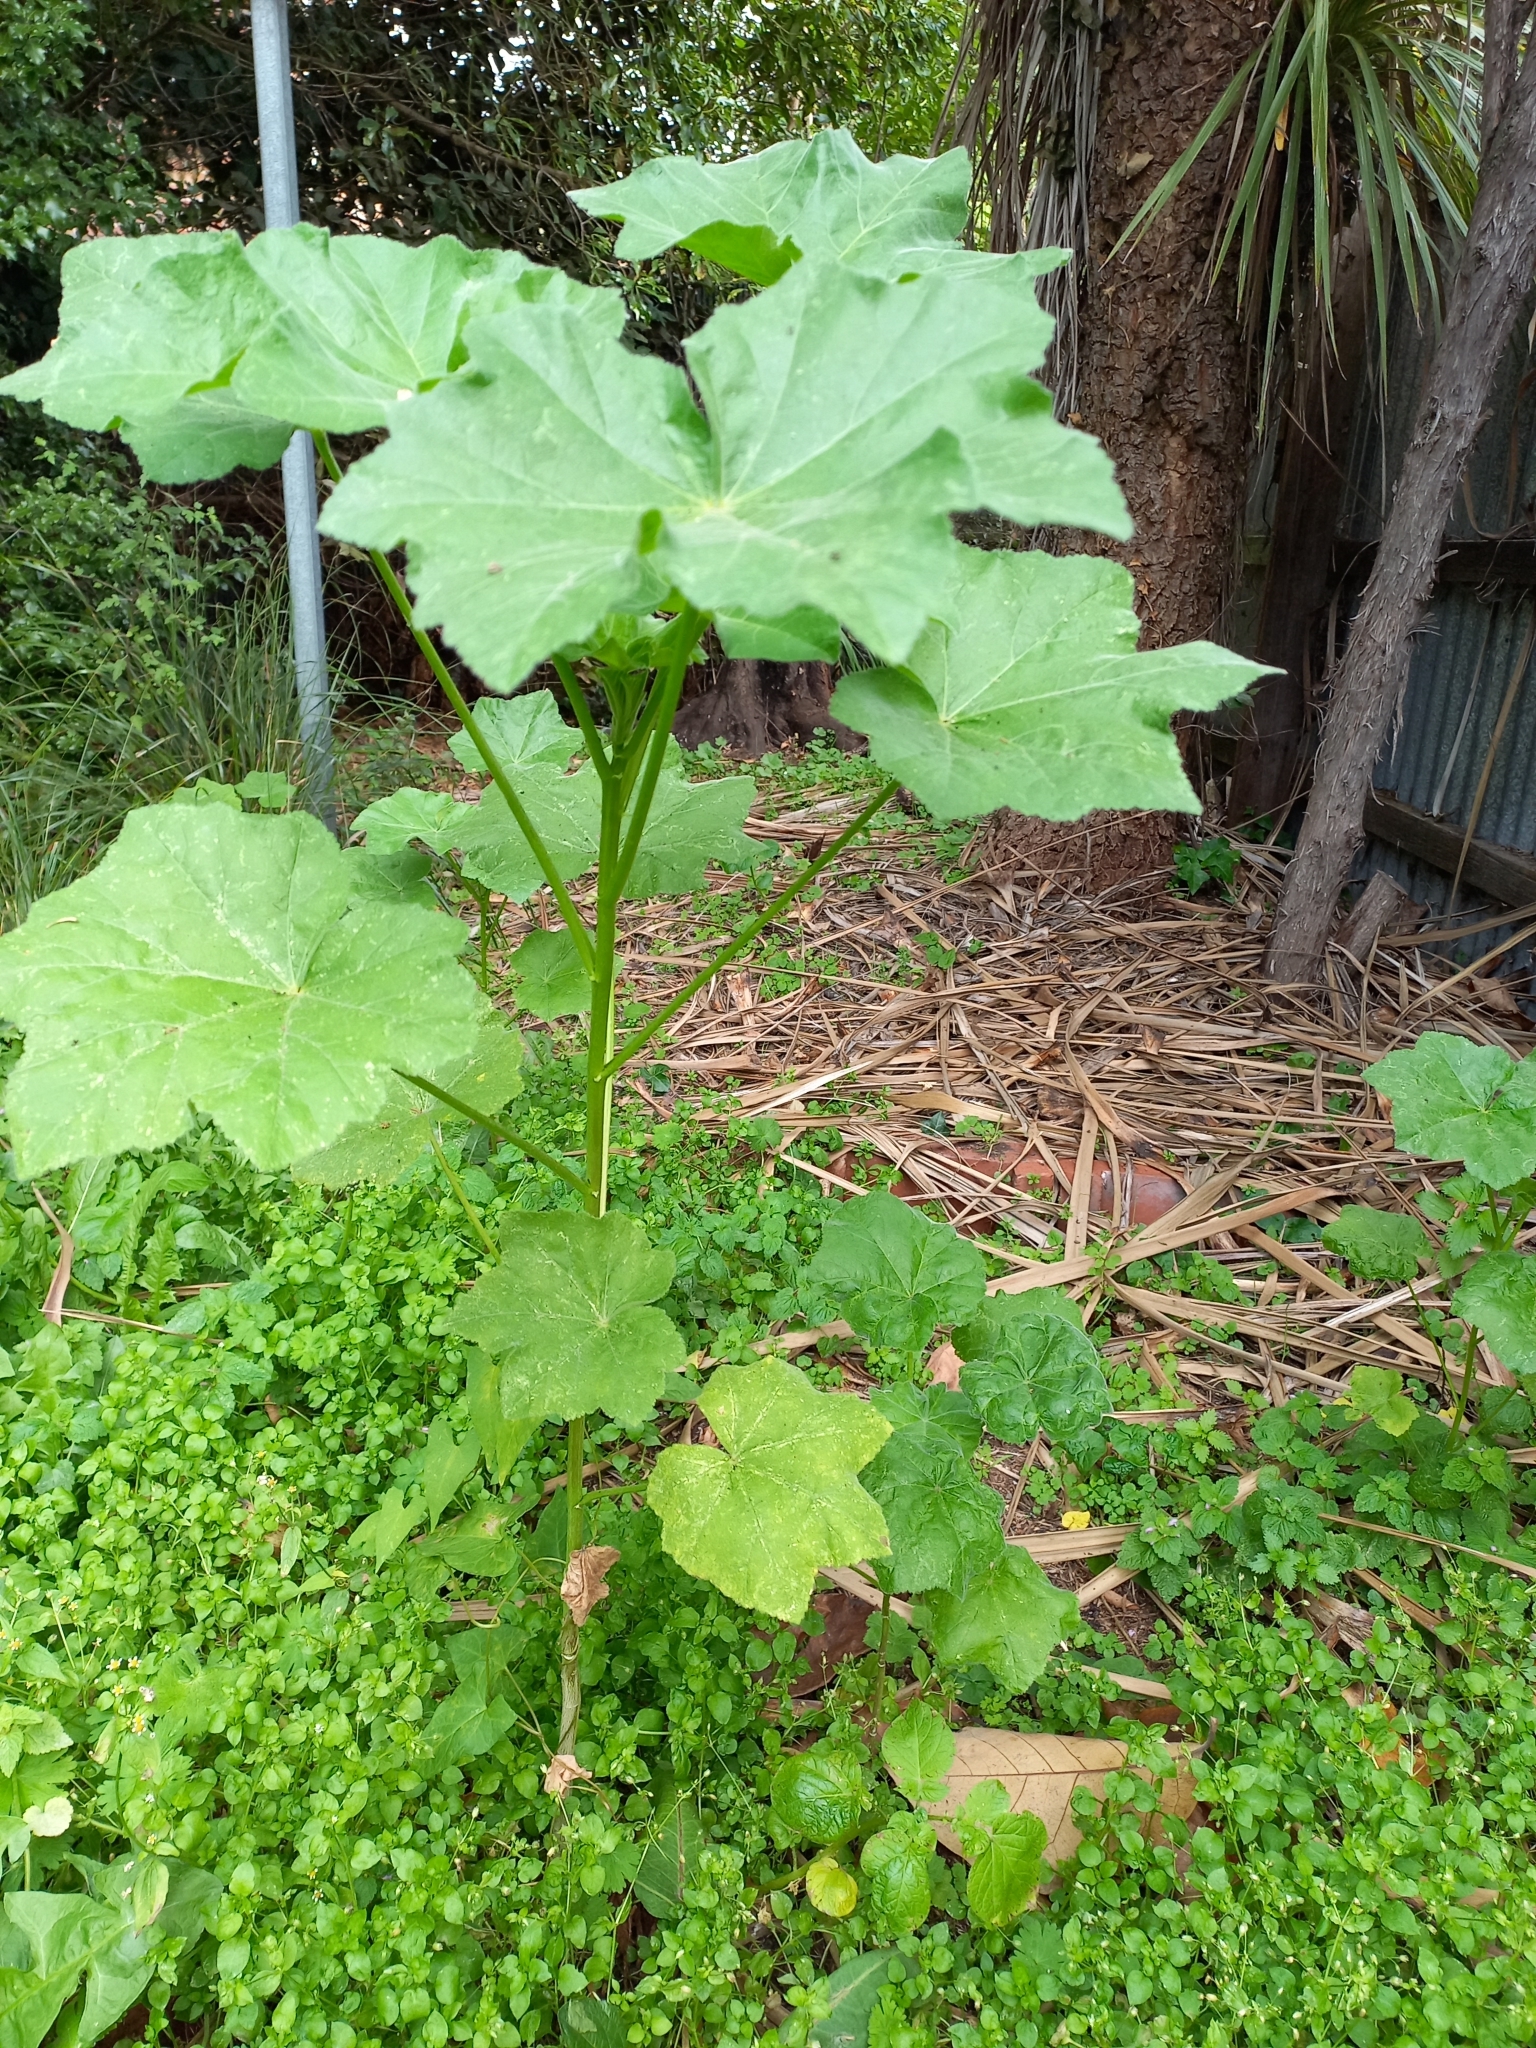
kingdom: Plantae
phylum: Tracheophyta
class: Magnoliopsida
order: Malvales
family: Malvaceae
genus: Malva
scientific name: Malva arborea
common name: Tree mallow
